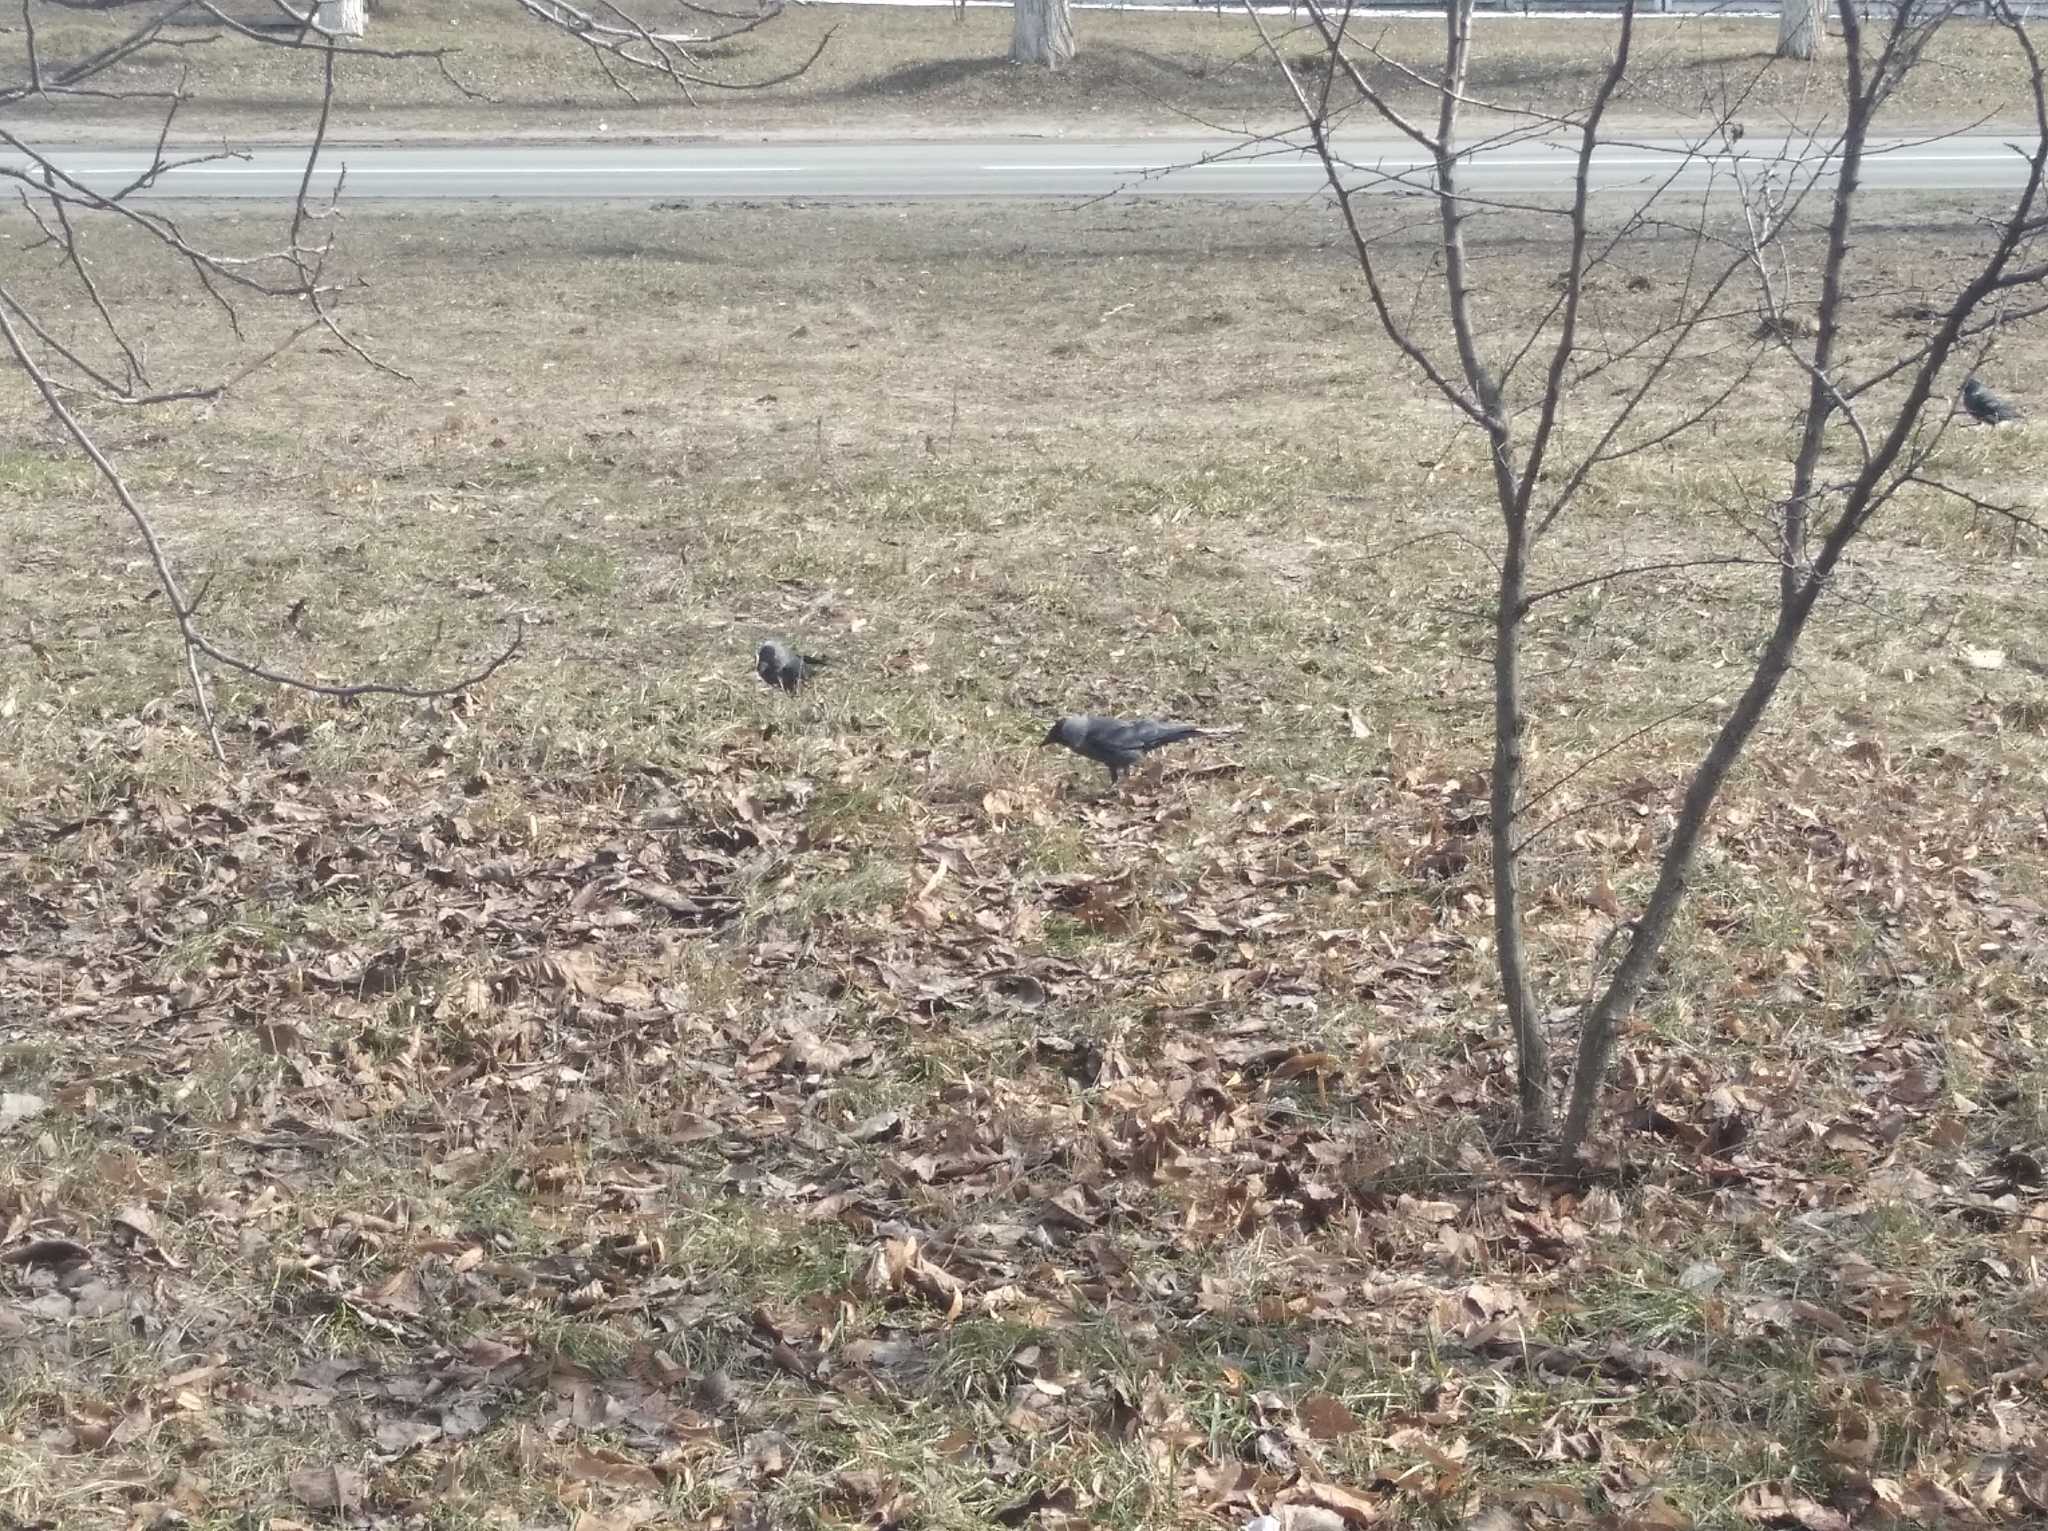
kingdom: Animalia
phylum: Chordata
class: Aves
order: Passeriformes
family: Corvidae
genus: Coloeus
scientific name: Coloeus monedula
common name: Western jackdaw
